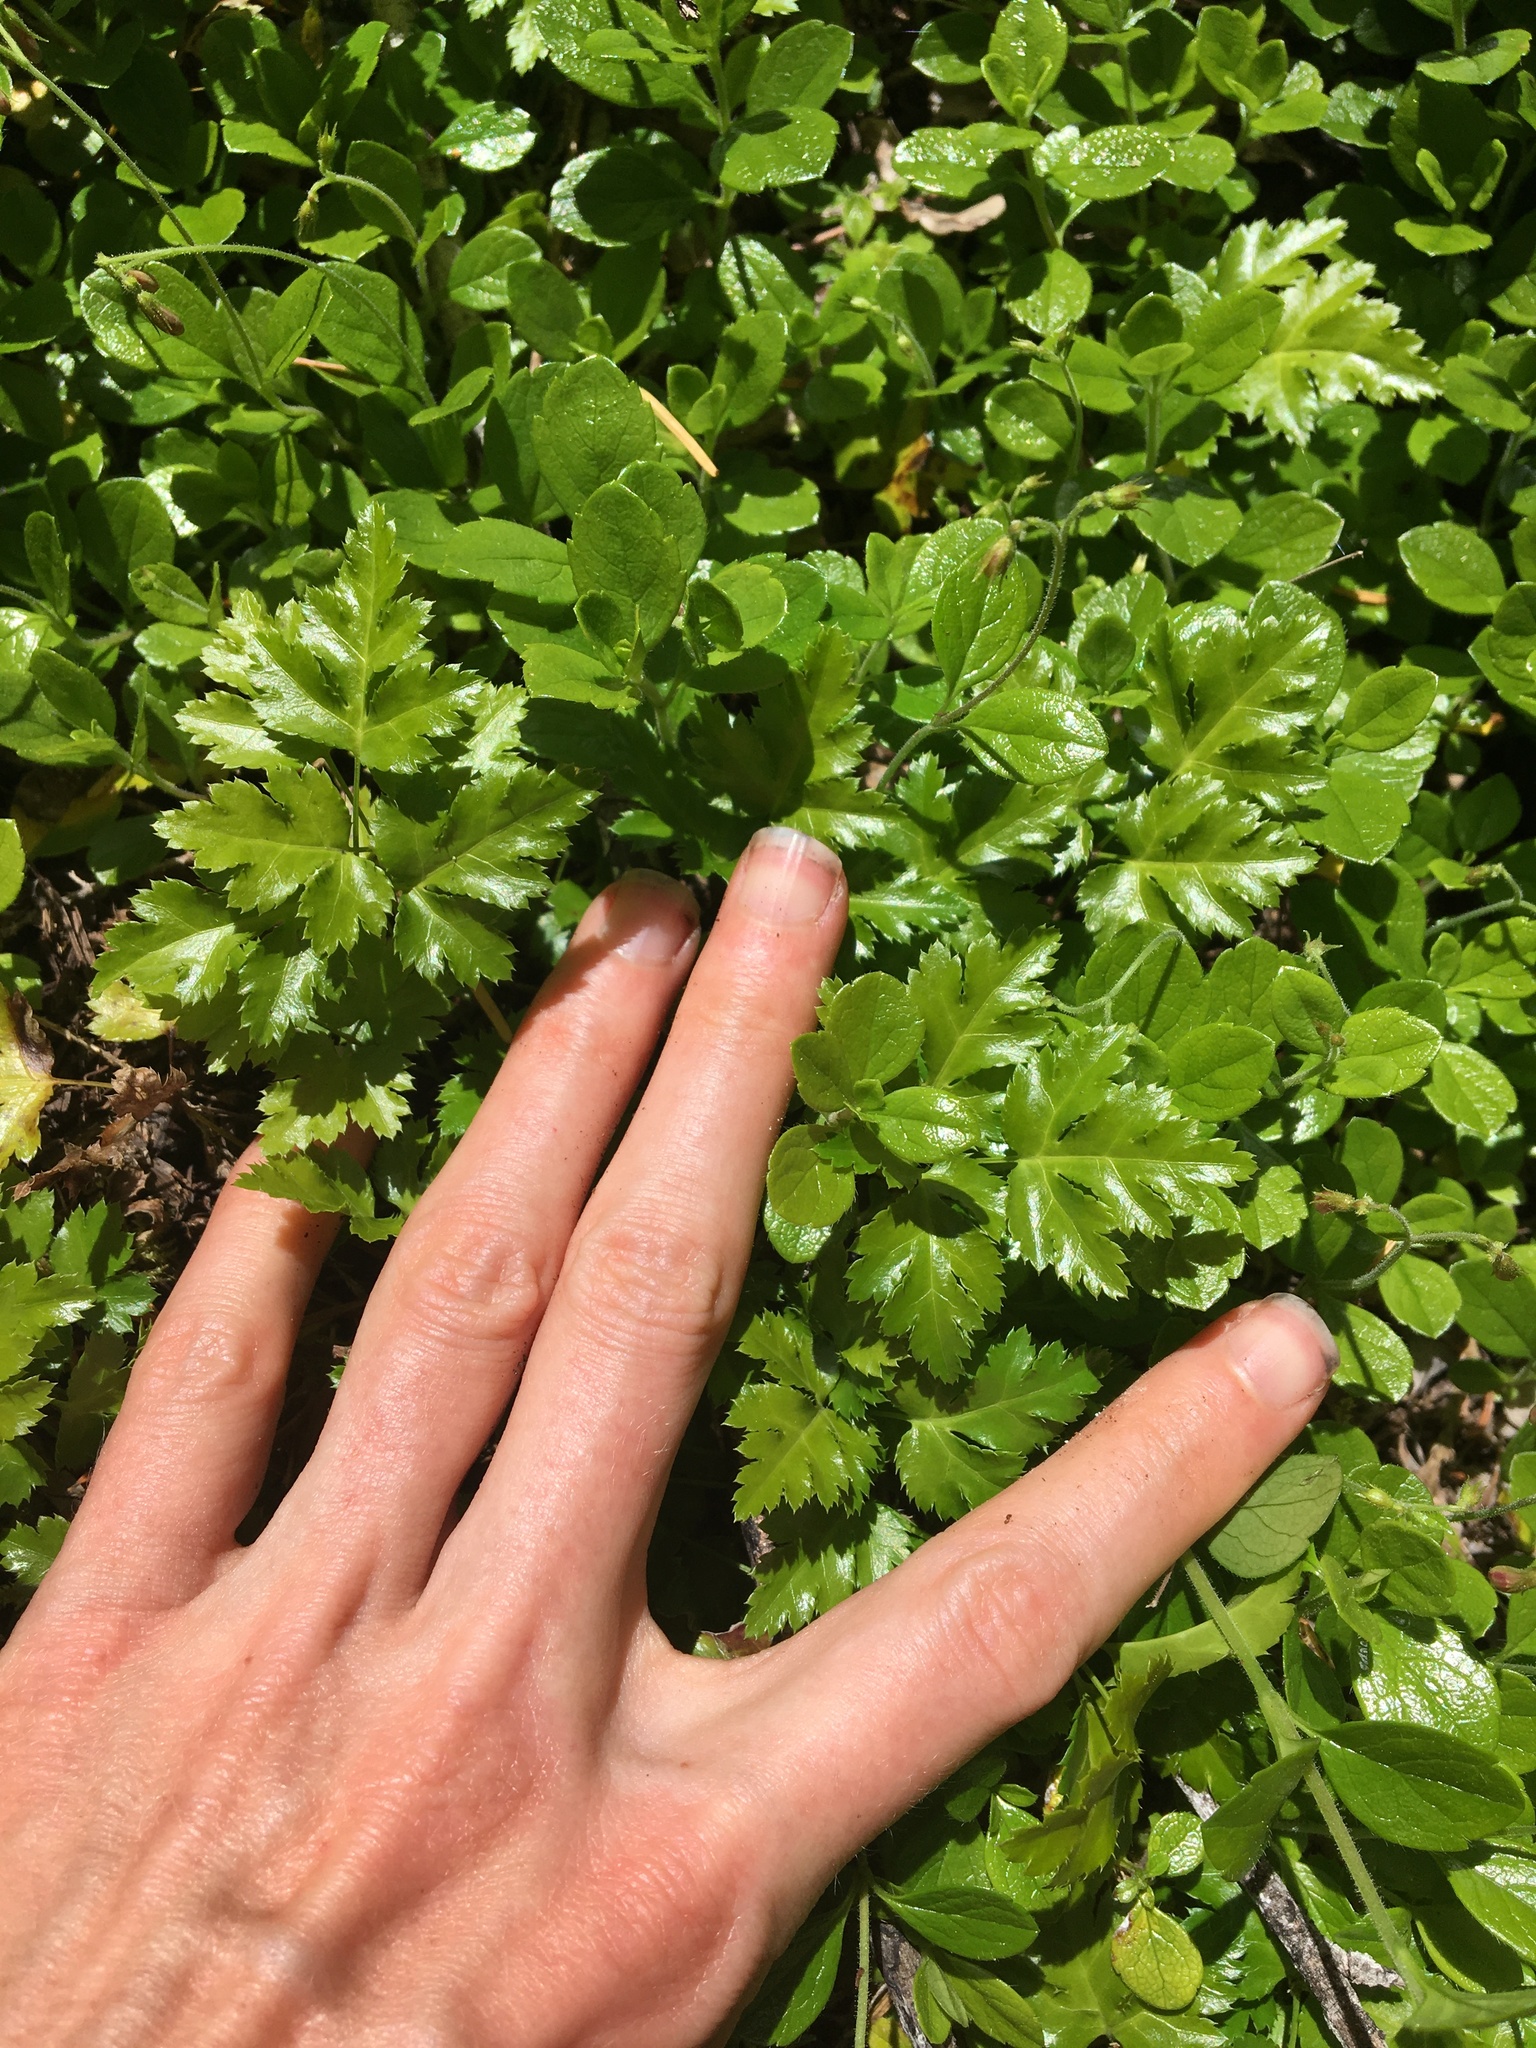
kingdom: Plantae
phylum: Tracheophyta
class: Magnoliopsida
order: Ranunculales
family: Ranunculaceae
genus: Coptis
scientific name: Coptis laciniata
